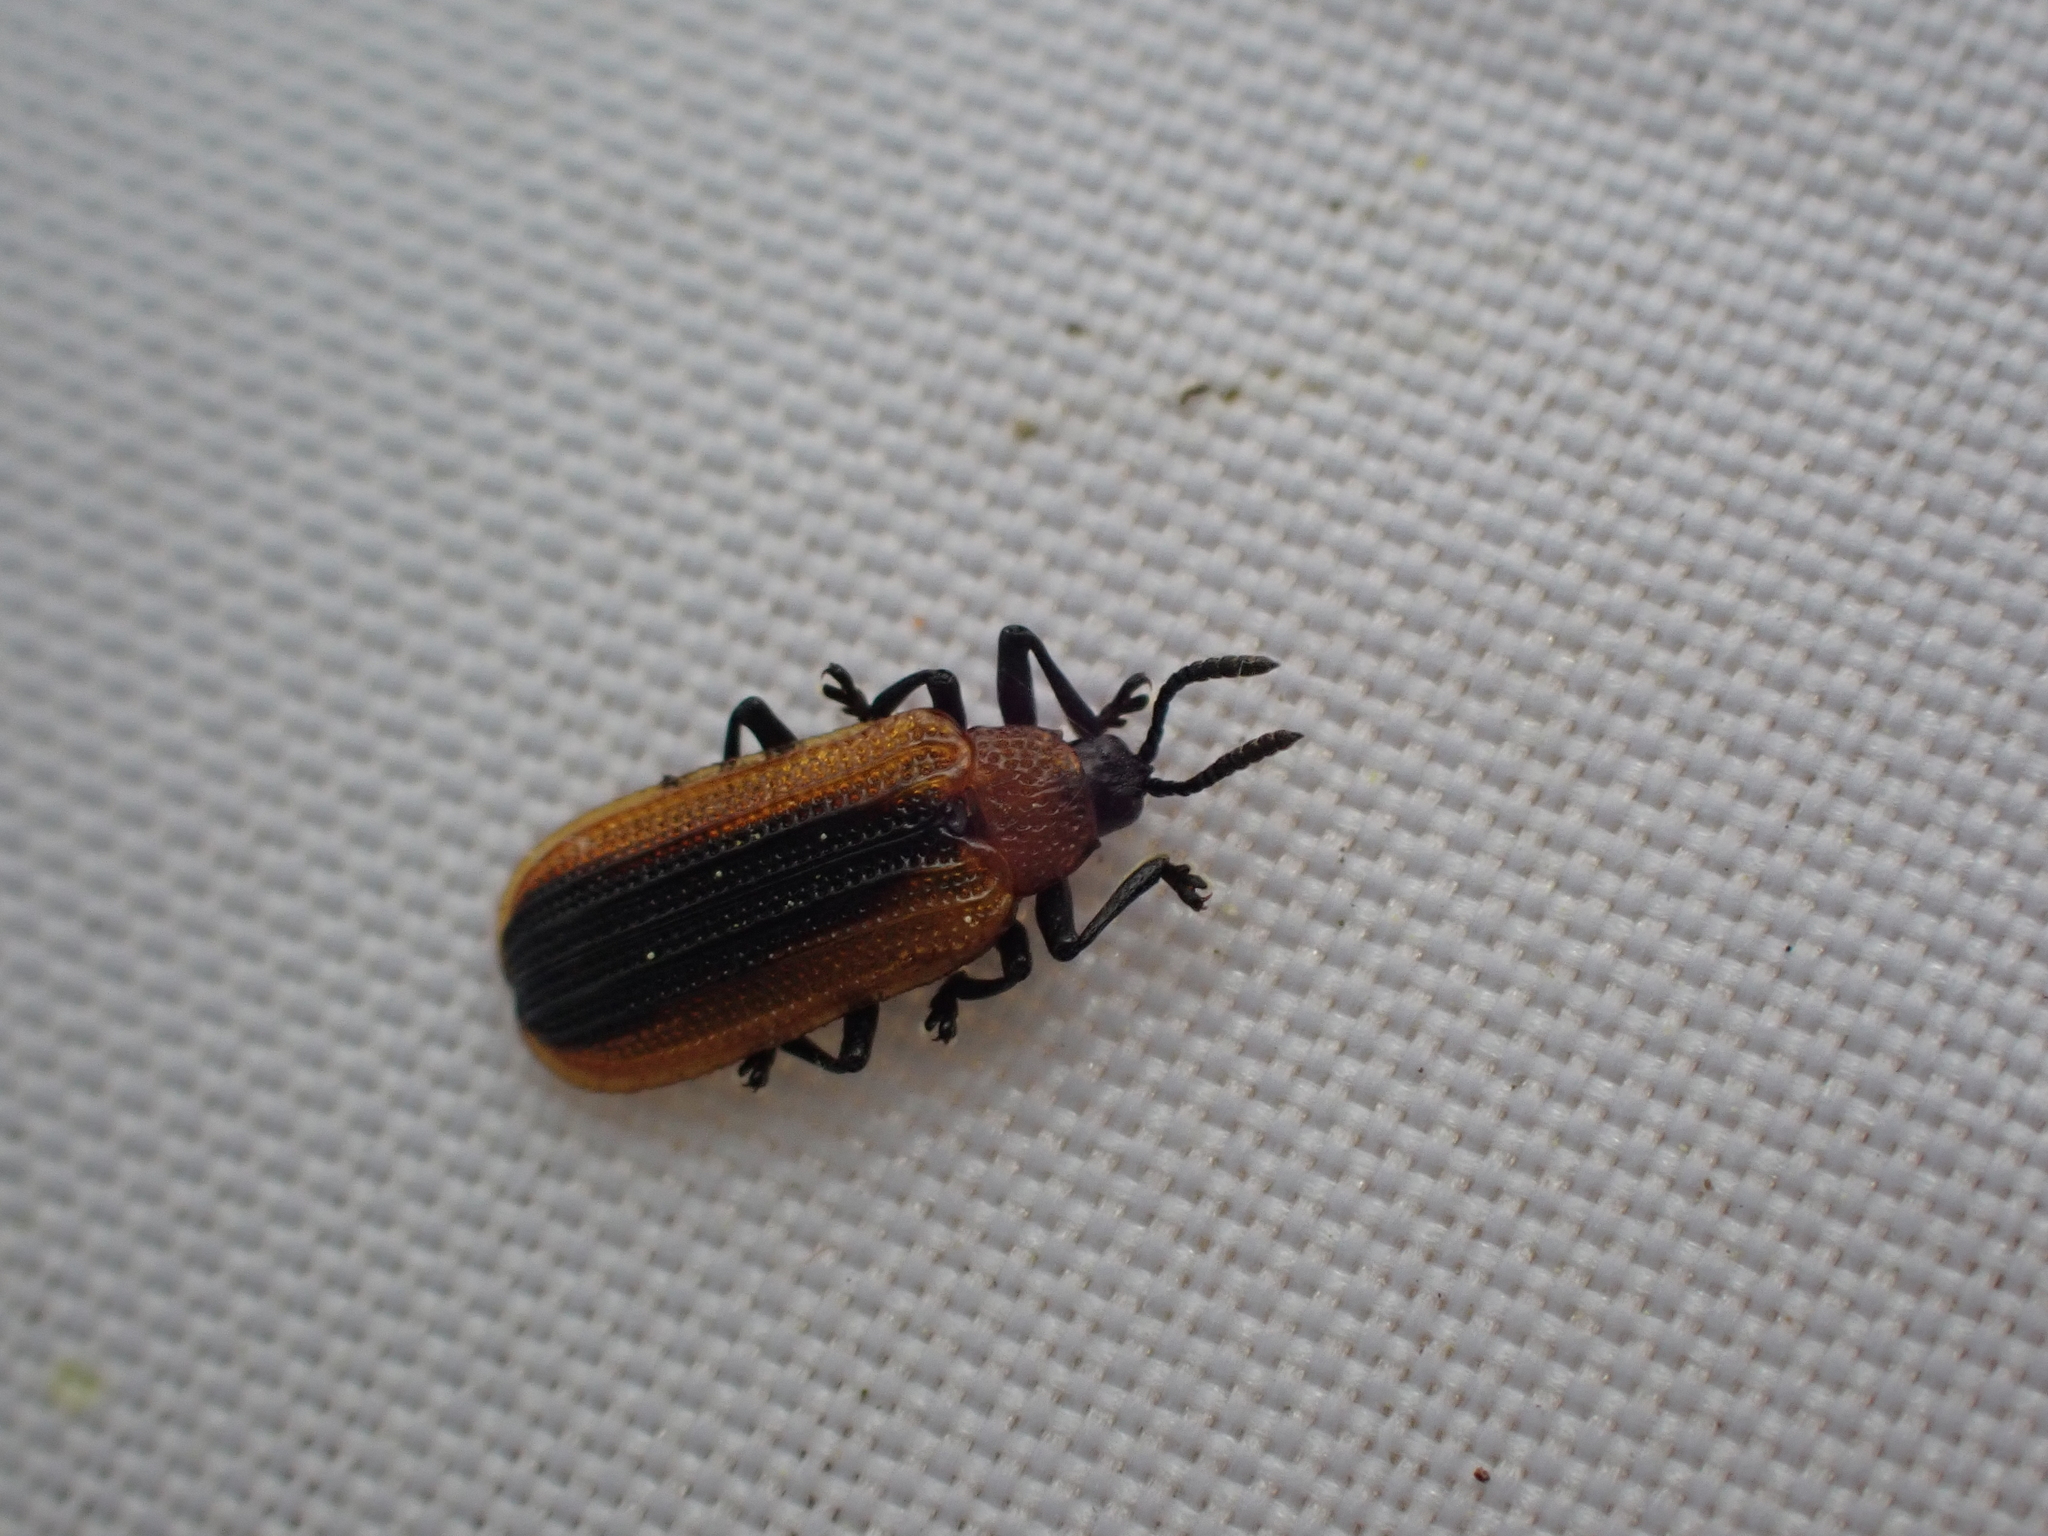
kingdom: Animalia
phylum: Arthropoda
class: Insecta
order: Coleoptera
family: Chrysomelidae
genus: Odontota
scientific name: Odontota dorsalis
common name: Locust leaf-miner beetle
